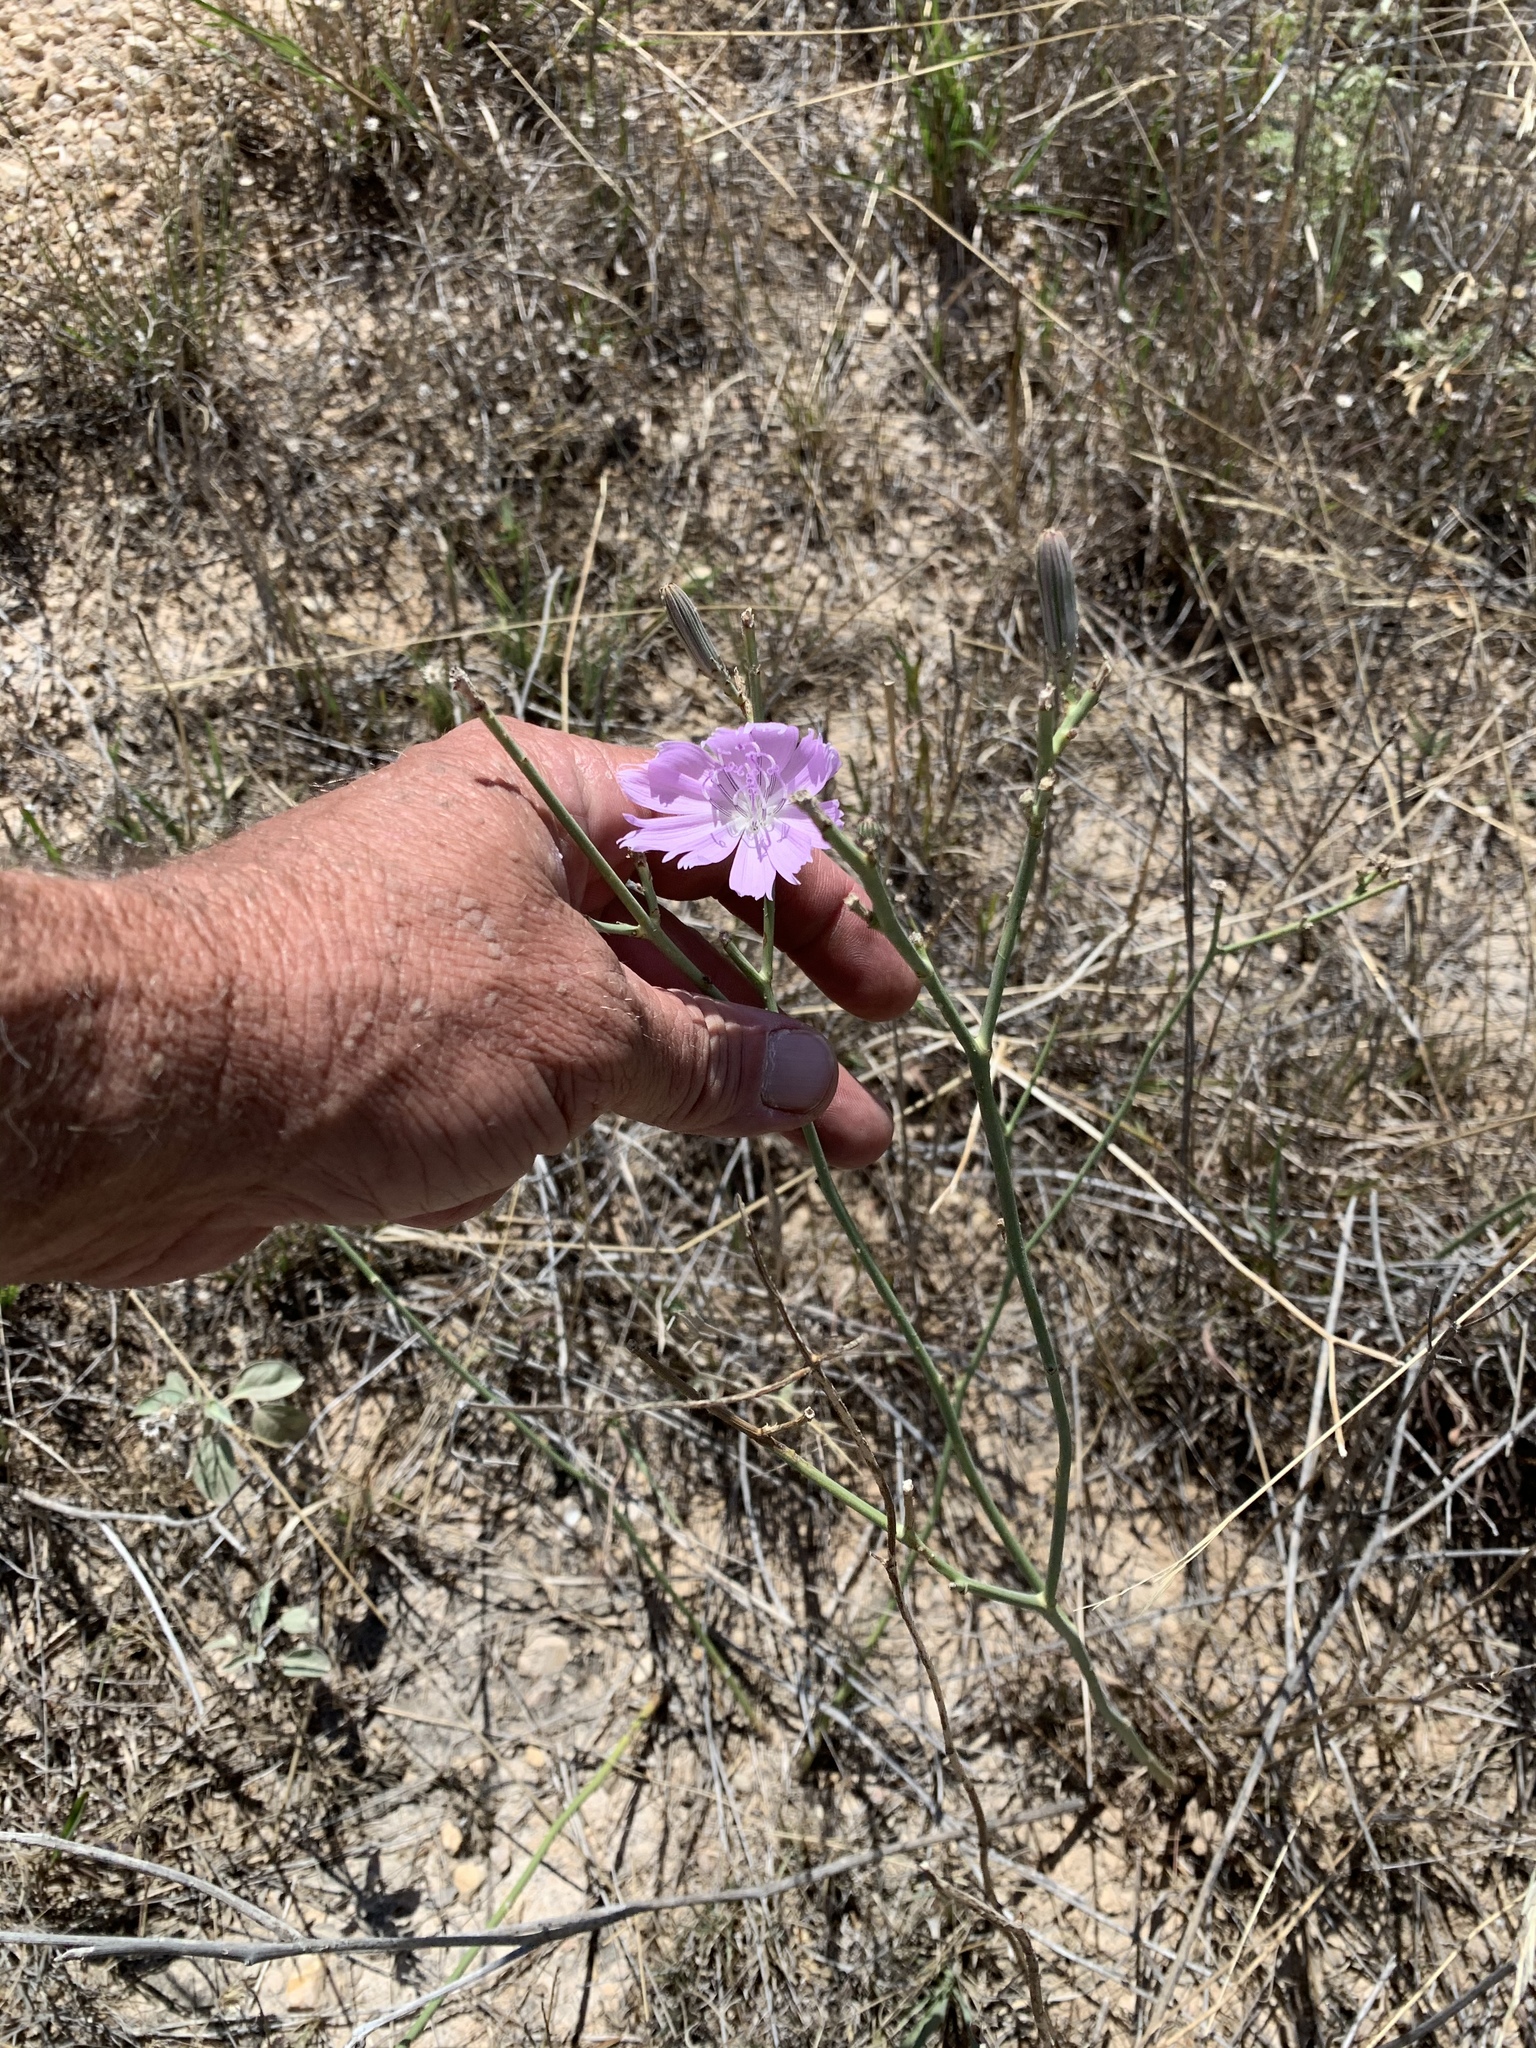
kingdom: Plantae
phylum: Tracheophyta
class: Magnoliopsida
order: Asterales
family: Asteraceae
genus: Lygodesmia
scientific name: Lygodesmia texana
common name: Texas skeleton-plant
